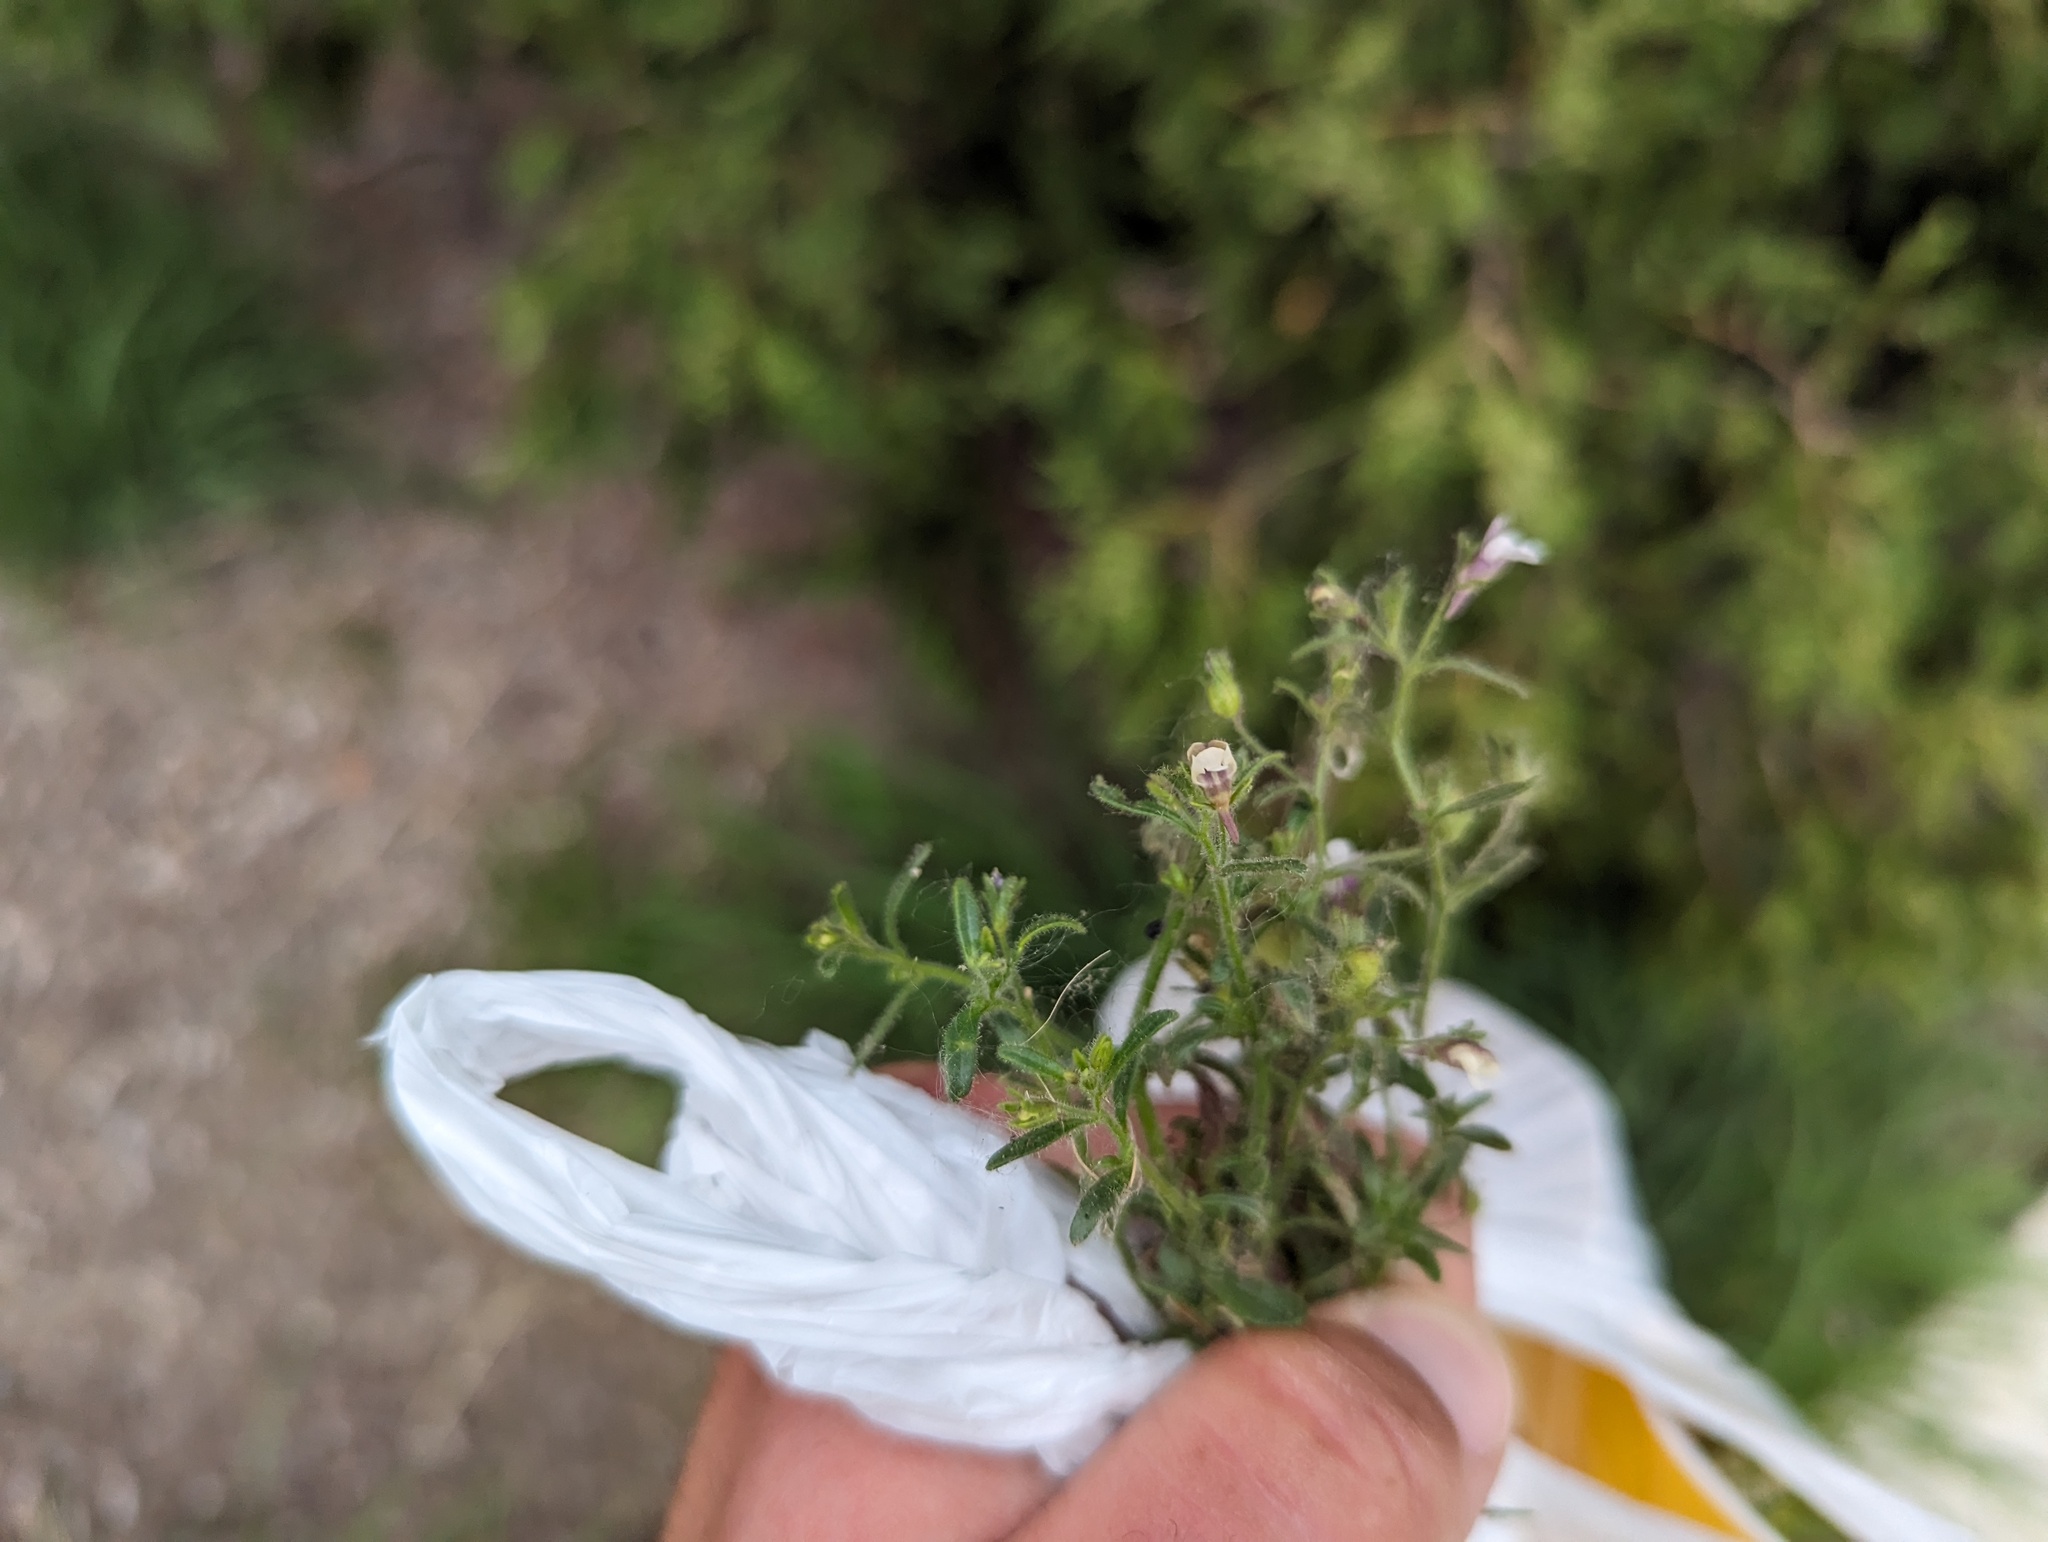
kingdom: Plantae
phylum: Tracheophyta
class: Magnoliopsida
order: Lamiales
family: Plantaginaceae
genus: Chaenorhinum
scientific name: Chaenorhinum minus
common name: Dwarf snapdragon
